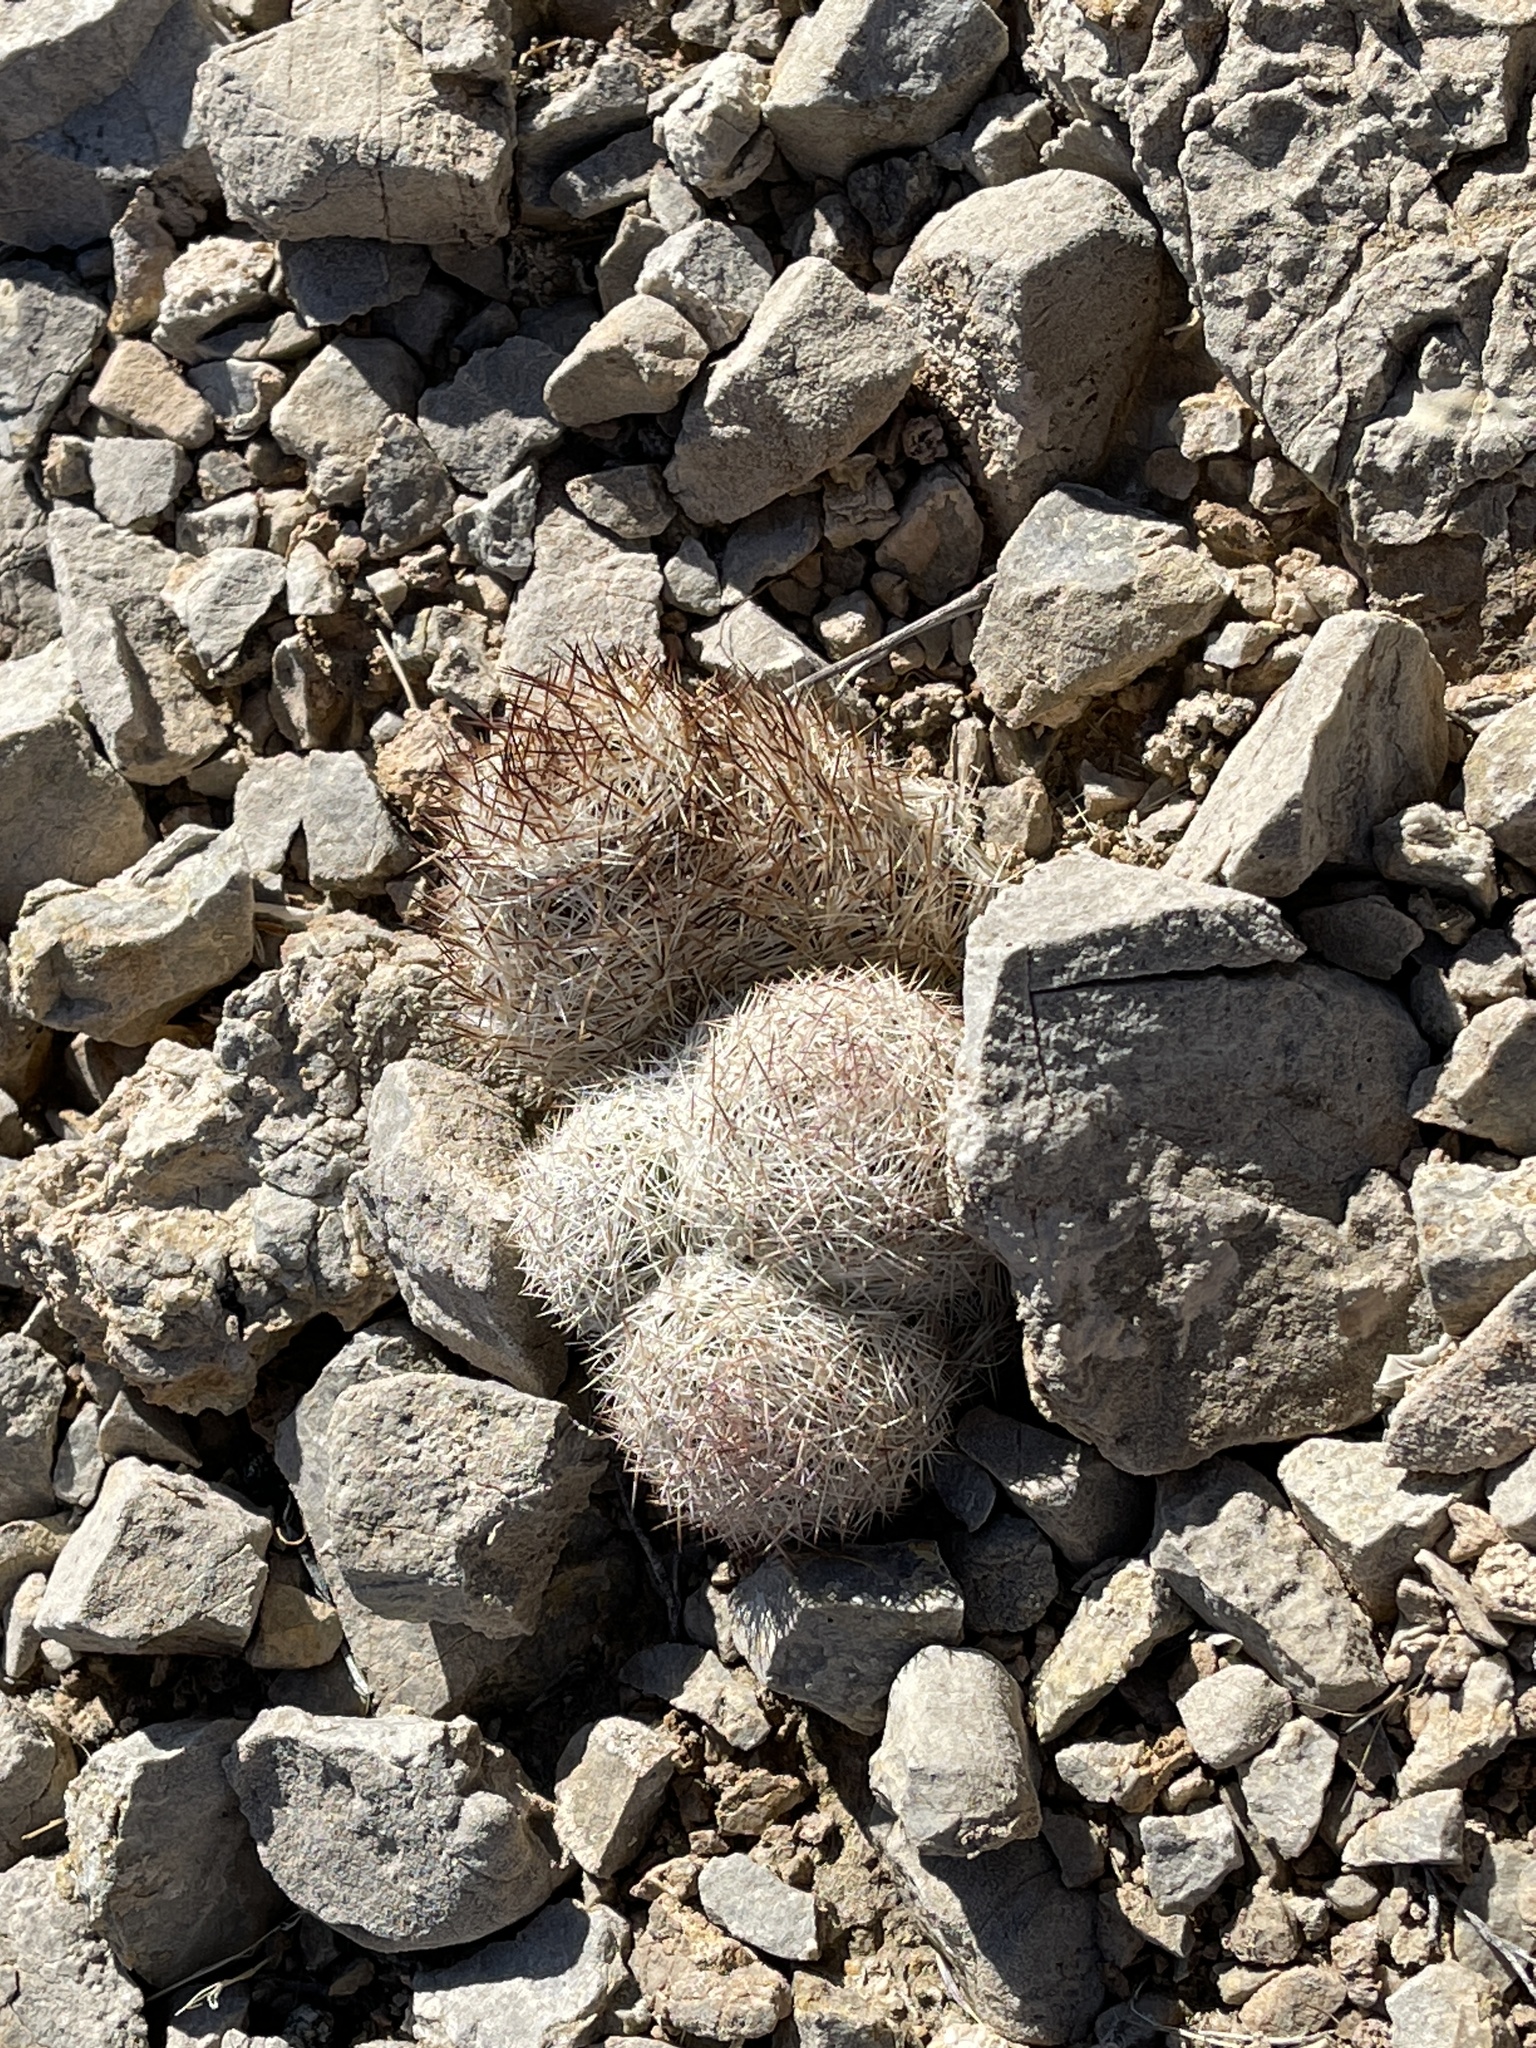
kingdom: Plantae
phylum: Tracheophyta
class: Magnoliopsida
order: Caryophyllales
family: Cactaceae
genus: Pelecyphora
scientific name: Pelecyphora dasyacantha
